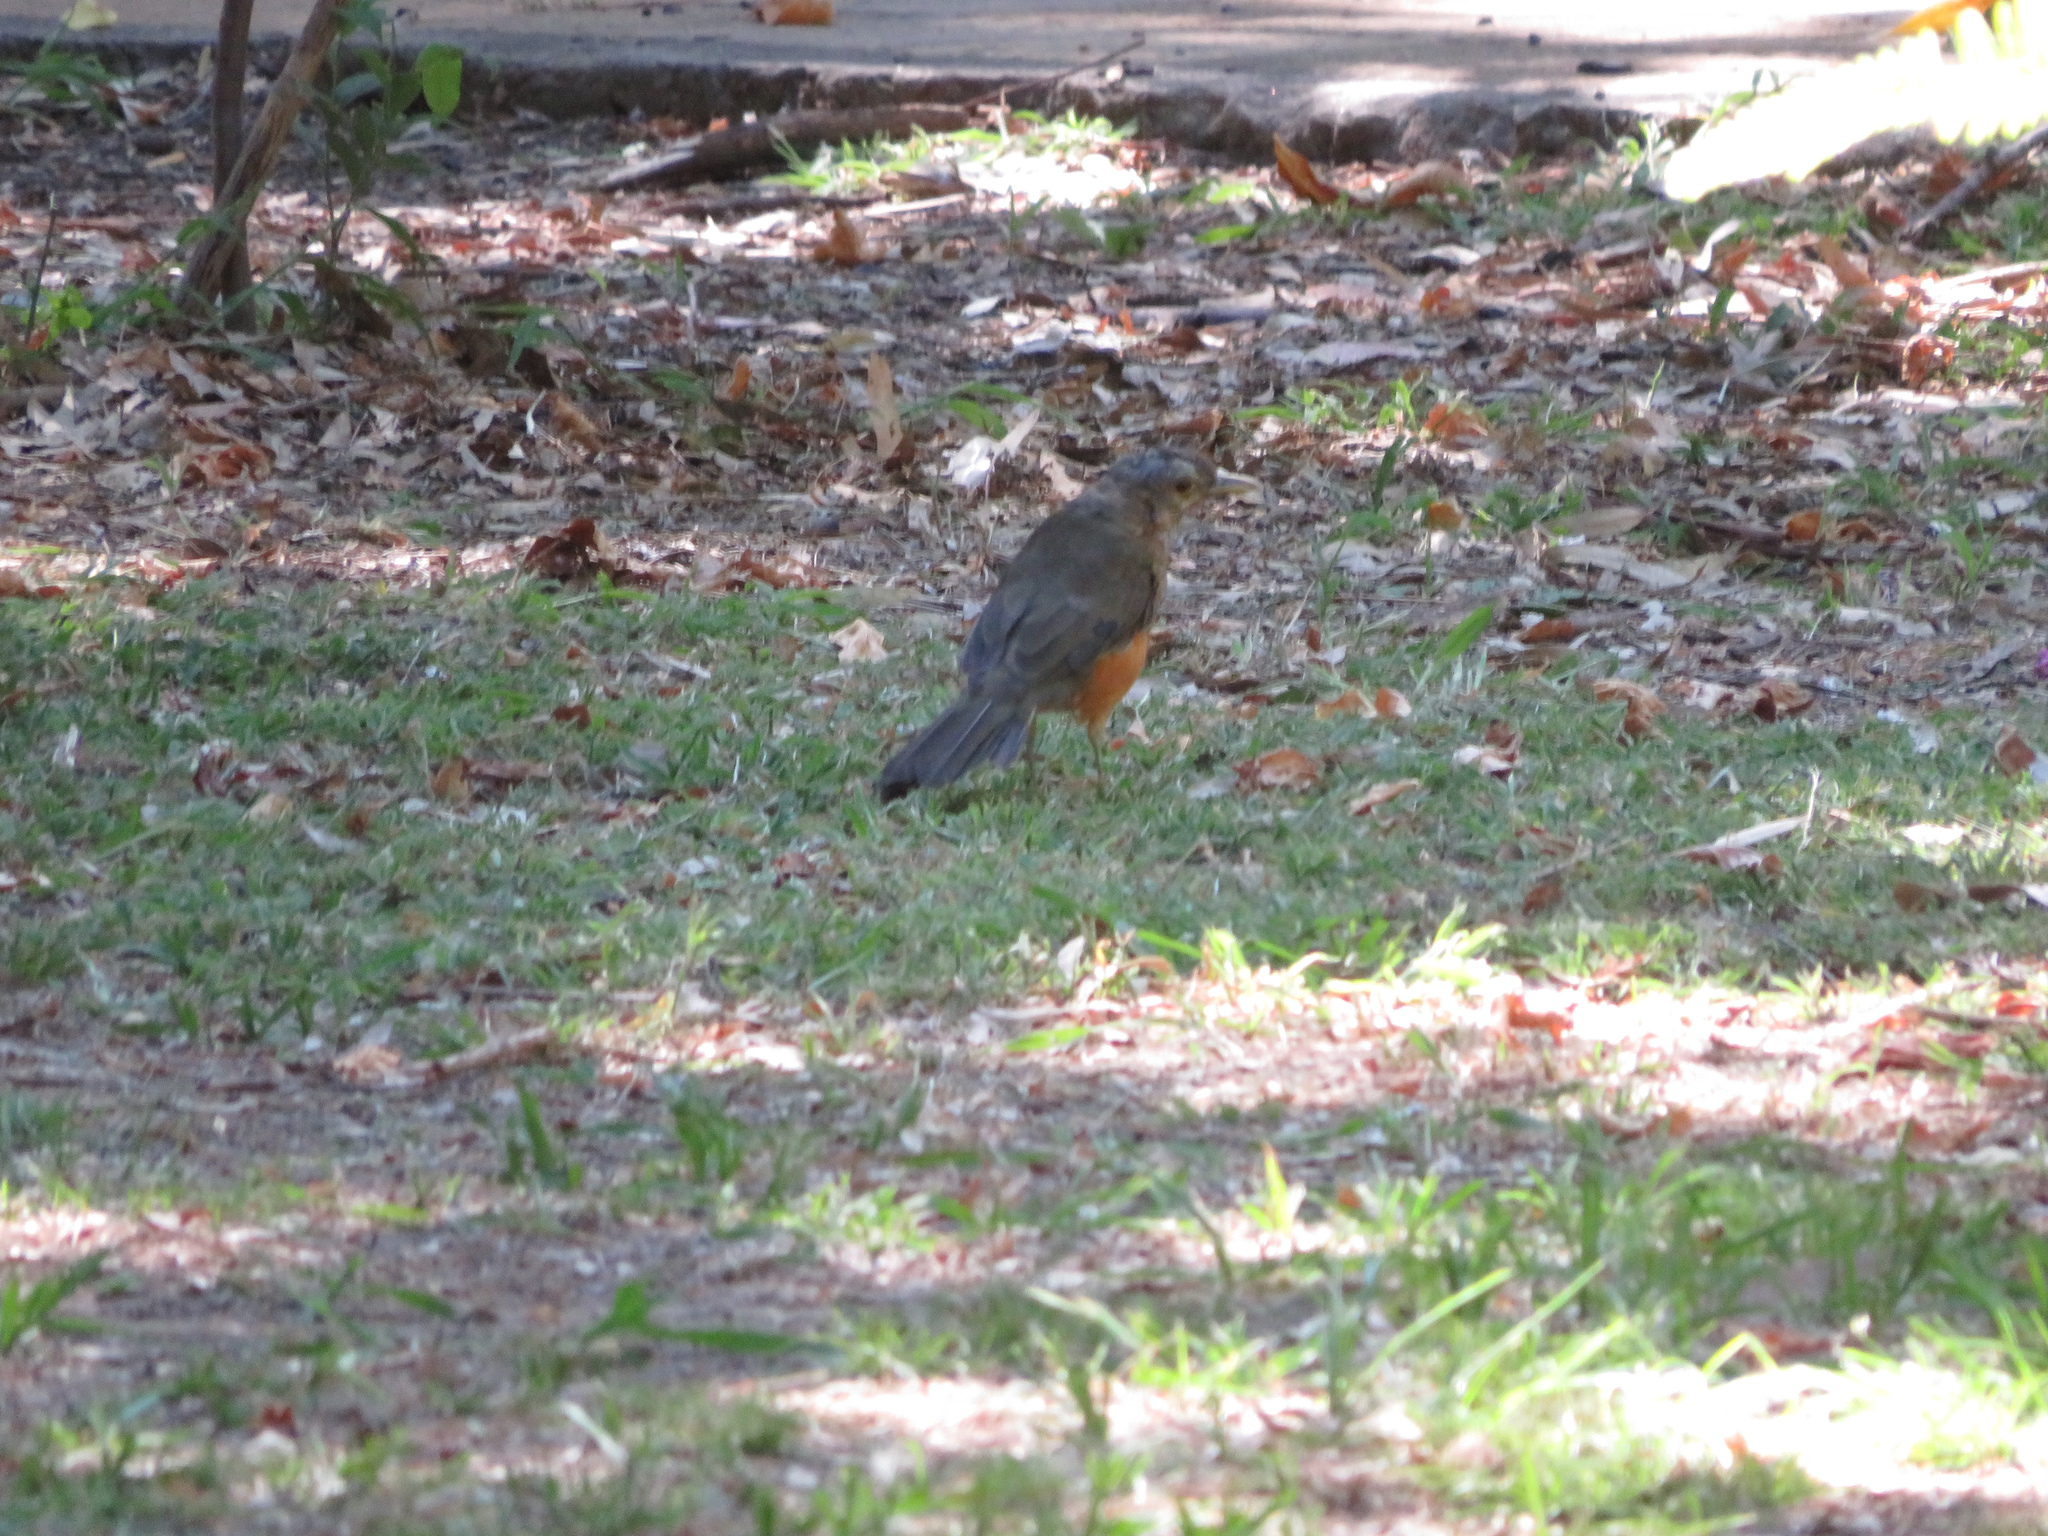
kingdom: Animalia
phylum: Chordata
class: Aves
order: Passeriformes
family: Turdidae
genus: Turdus
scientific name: Turdus rufiventris
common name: Rufous-bellied thrush
